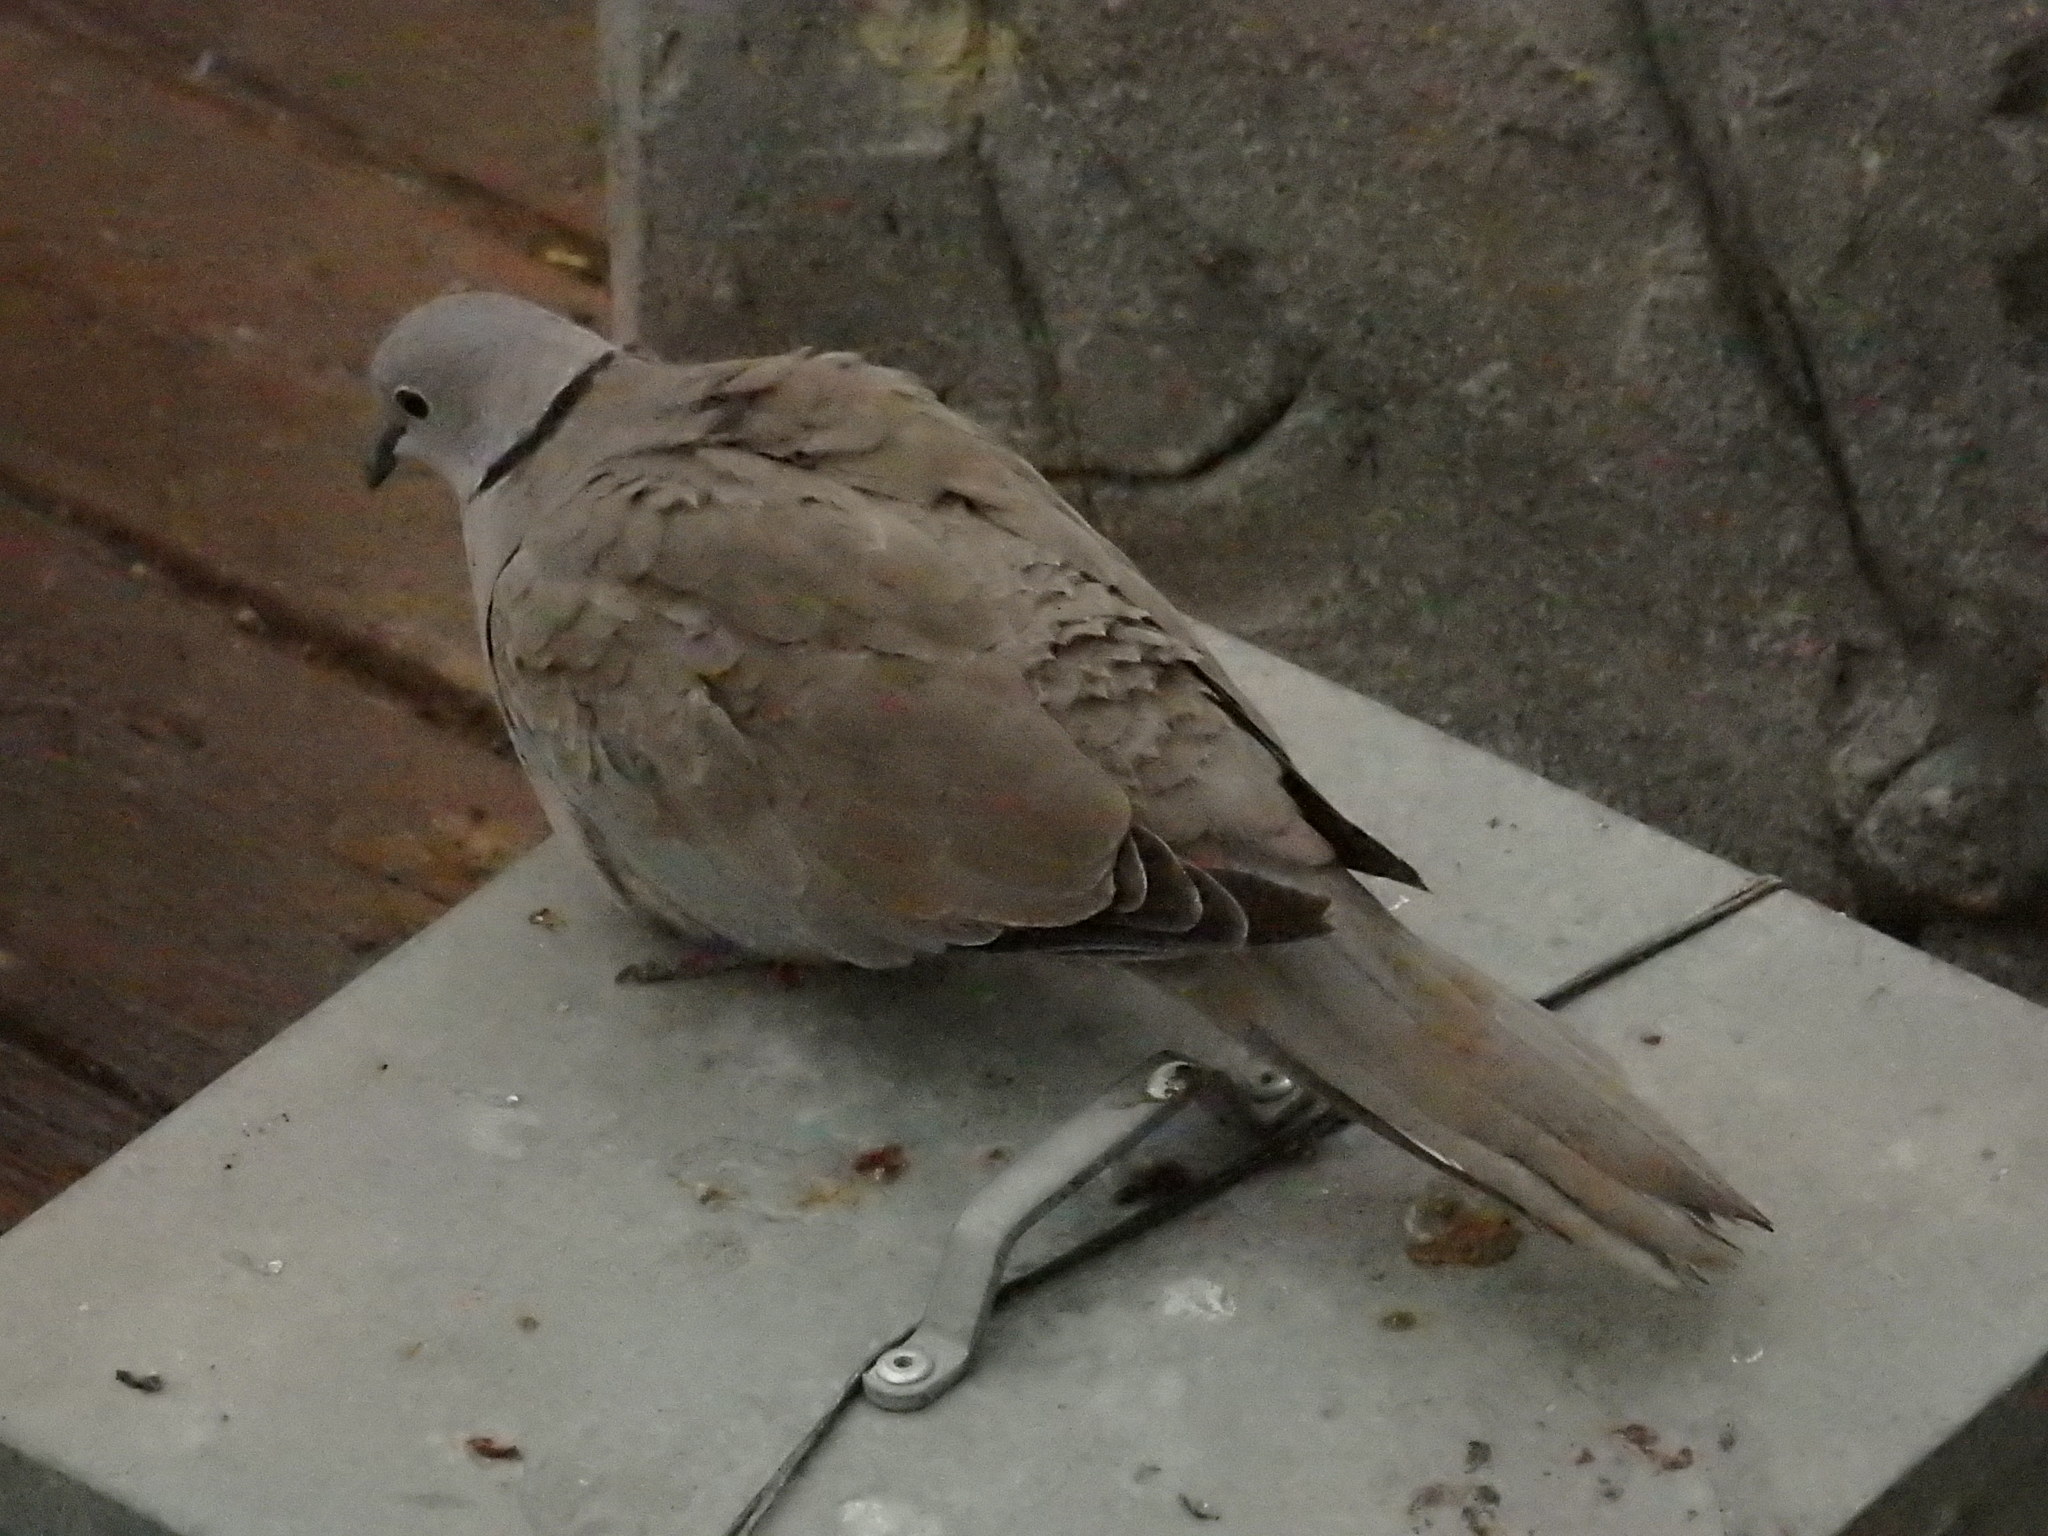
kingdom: Animalia
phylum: Chordata
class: Aves
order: Columbiformes
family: Columbidae
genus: Streptopelia
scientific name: Streptopelia decaocto
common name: Eurasian collared dove
